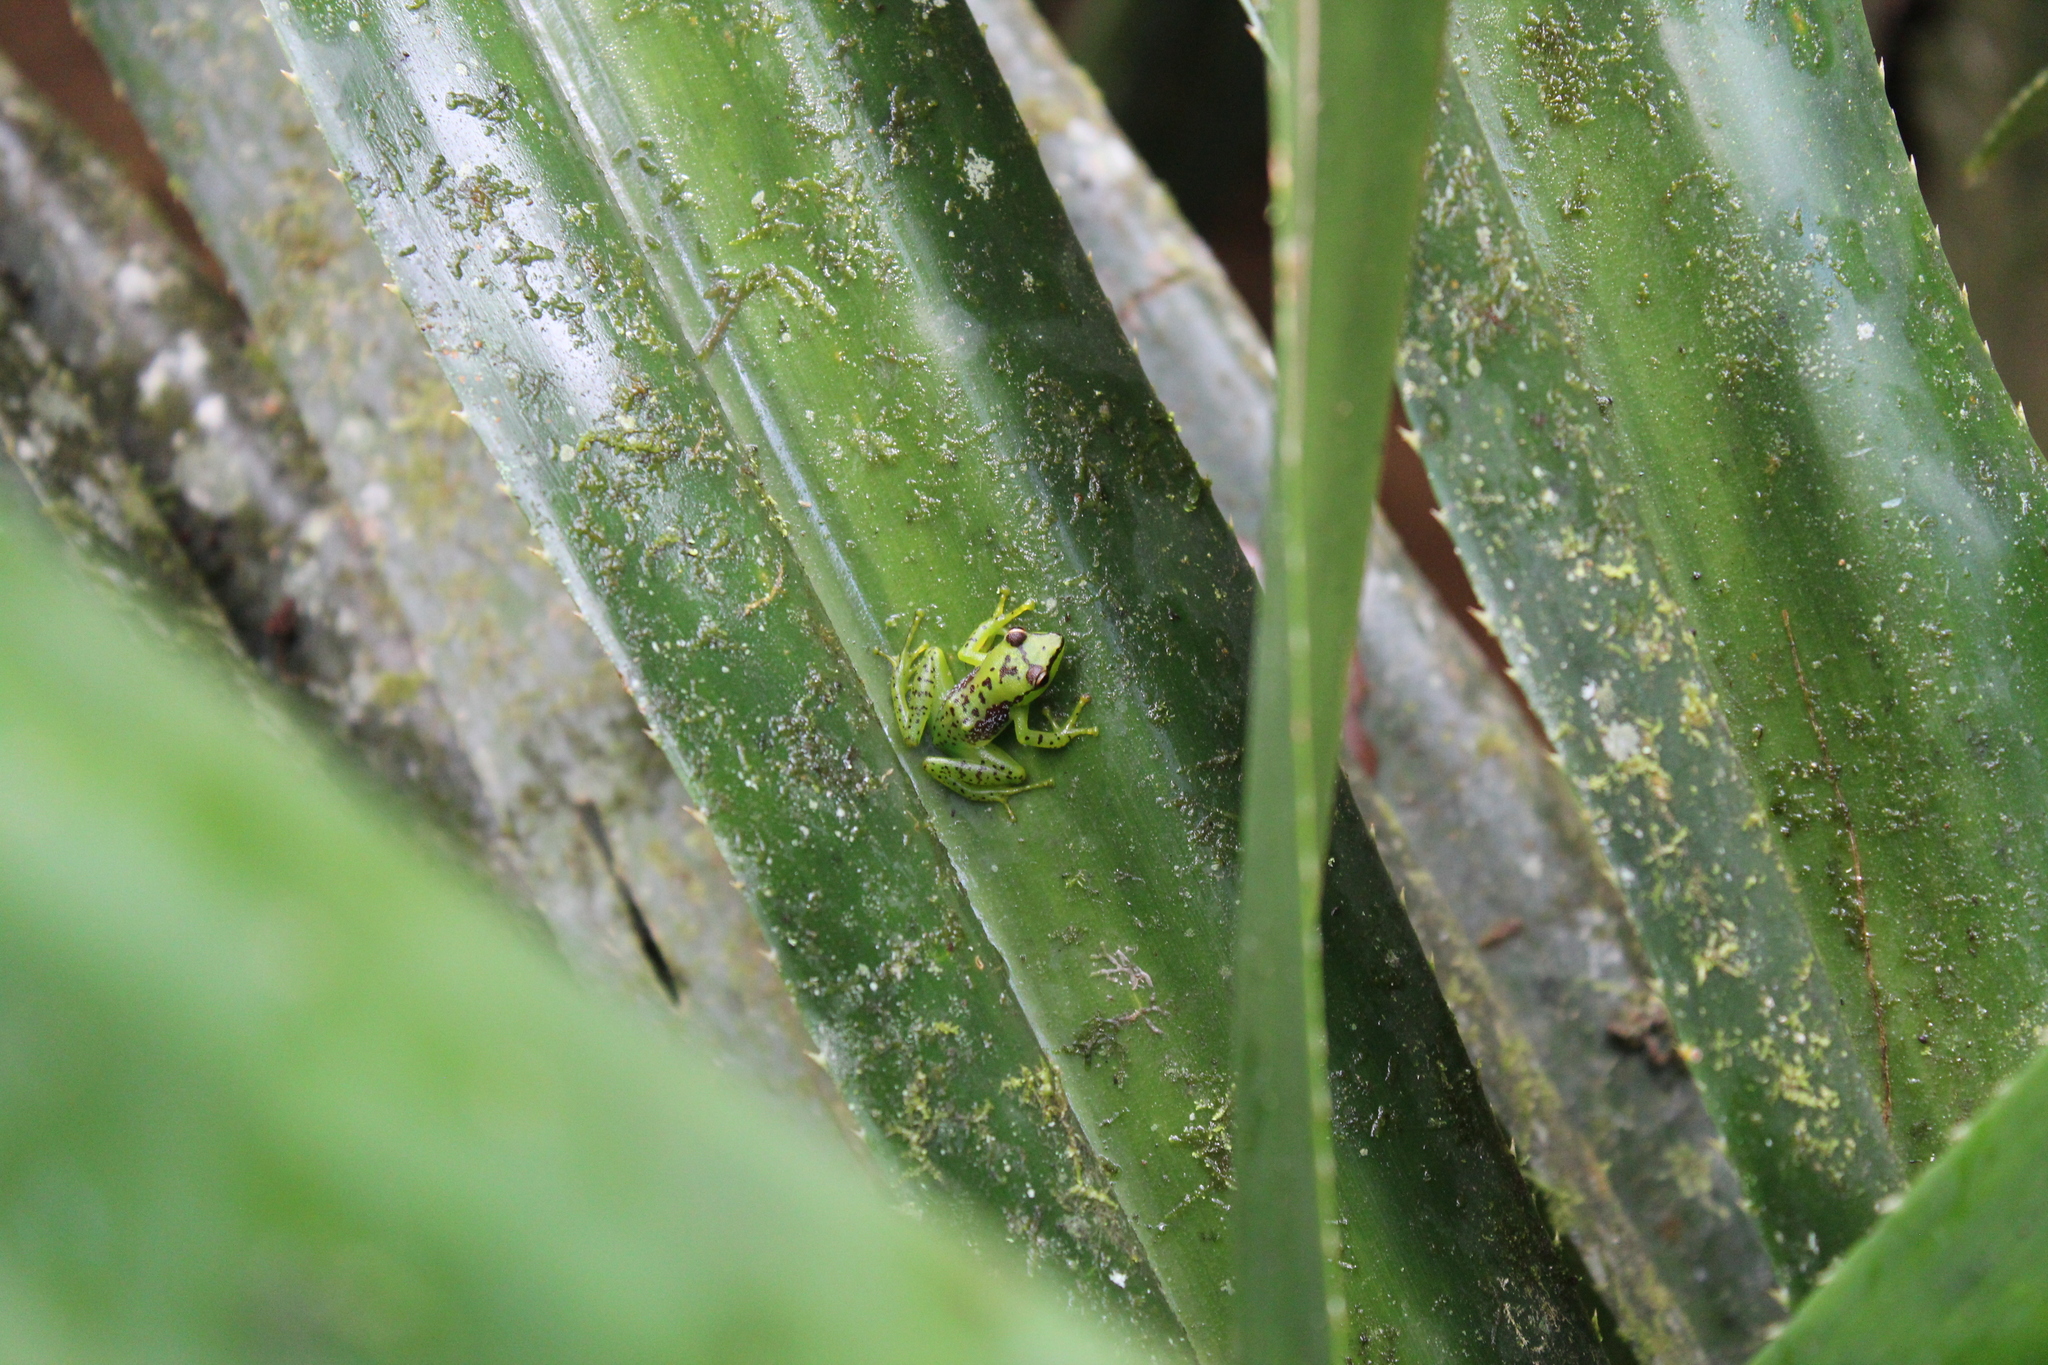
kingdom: Animalia
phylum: Chordata
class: Amphibia
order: Anura
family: Mantellidae
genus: Guibemantis
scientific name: Guibemantis pulcher
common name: Tsarafidy madagascar frog
